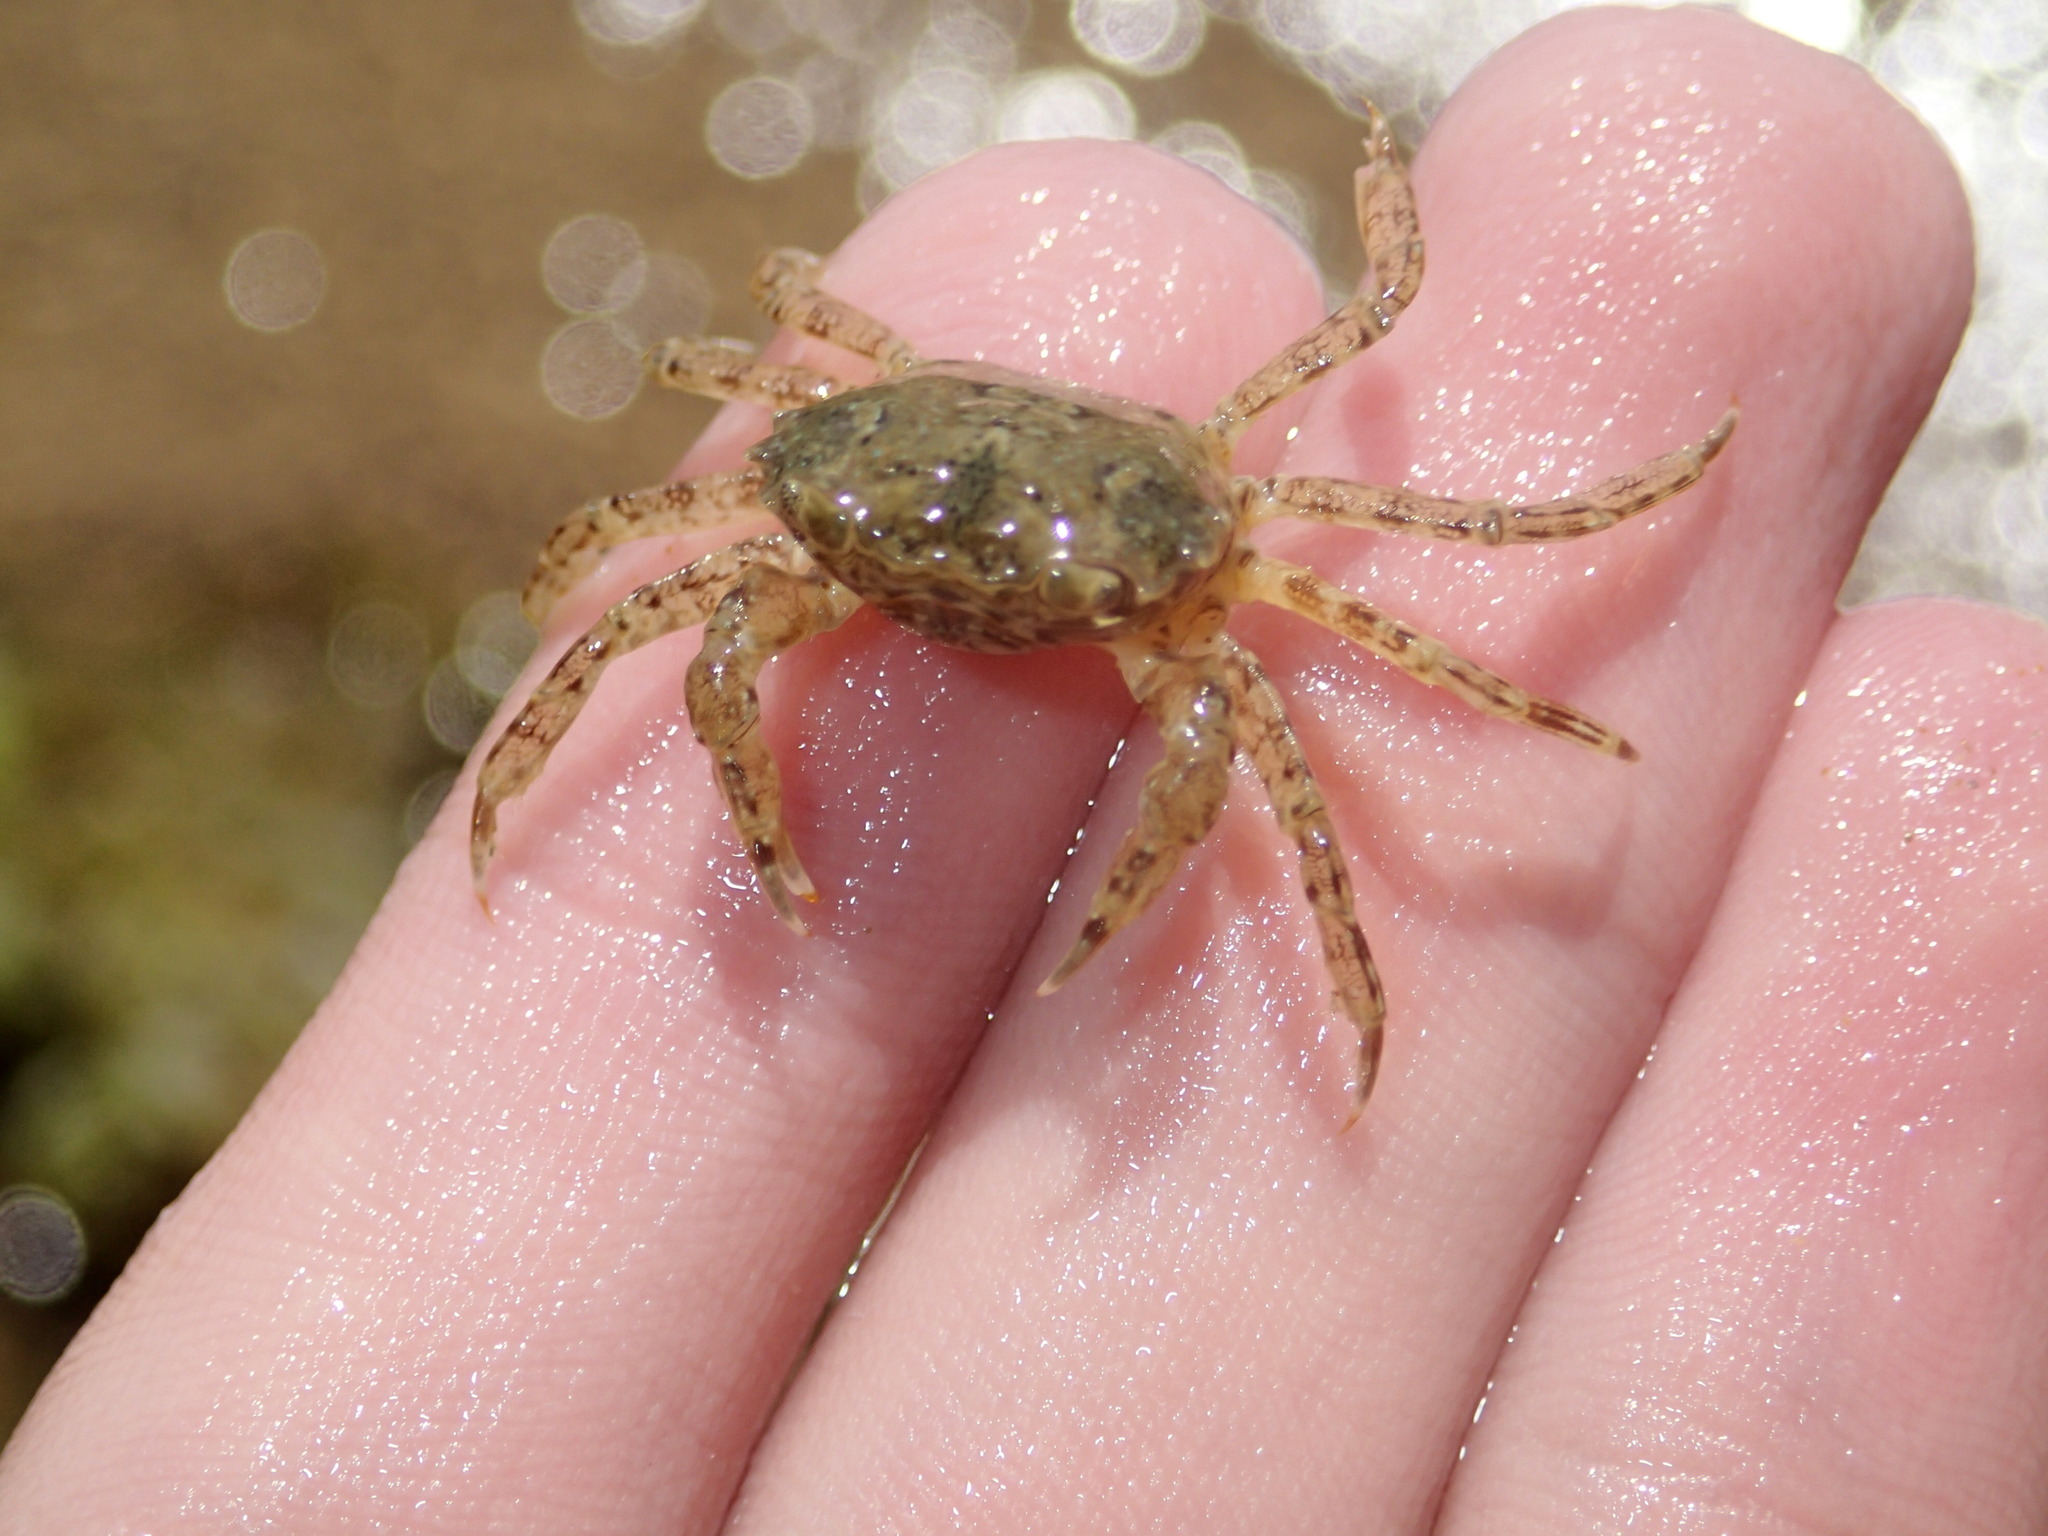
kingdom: Animalia
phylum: Arthropoda
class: Malacostraca
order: Decapoda
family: Varunidae
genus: Brachynotus
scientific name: Brachynotus sexdentatus
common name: Mediterranean crab
